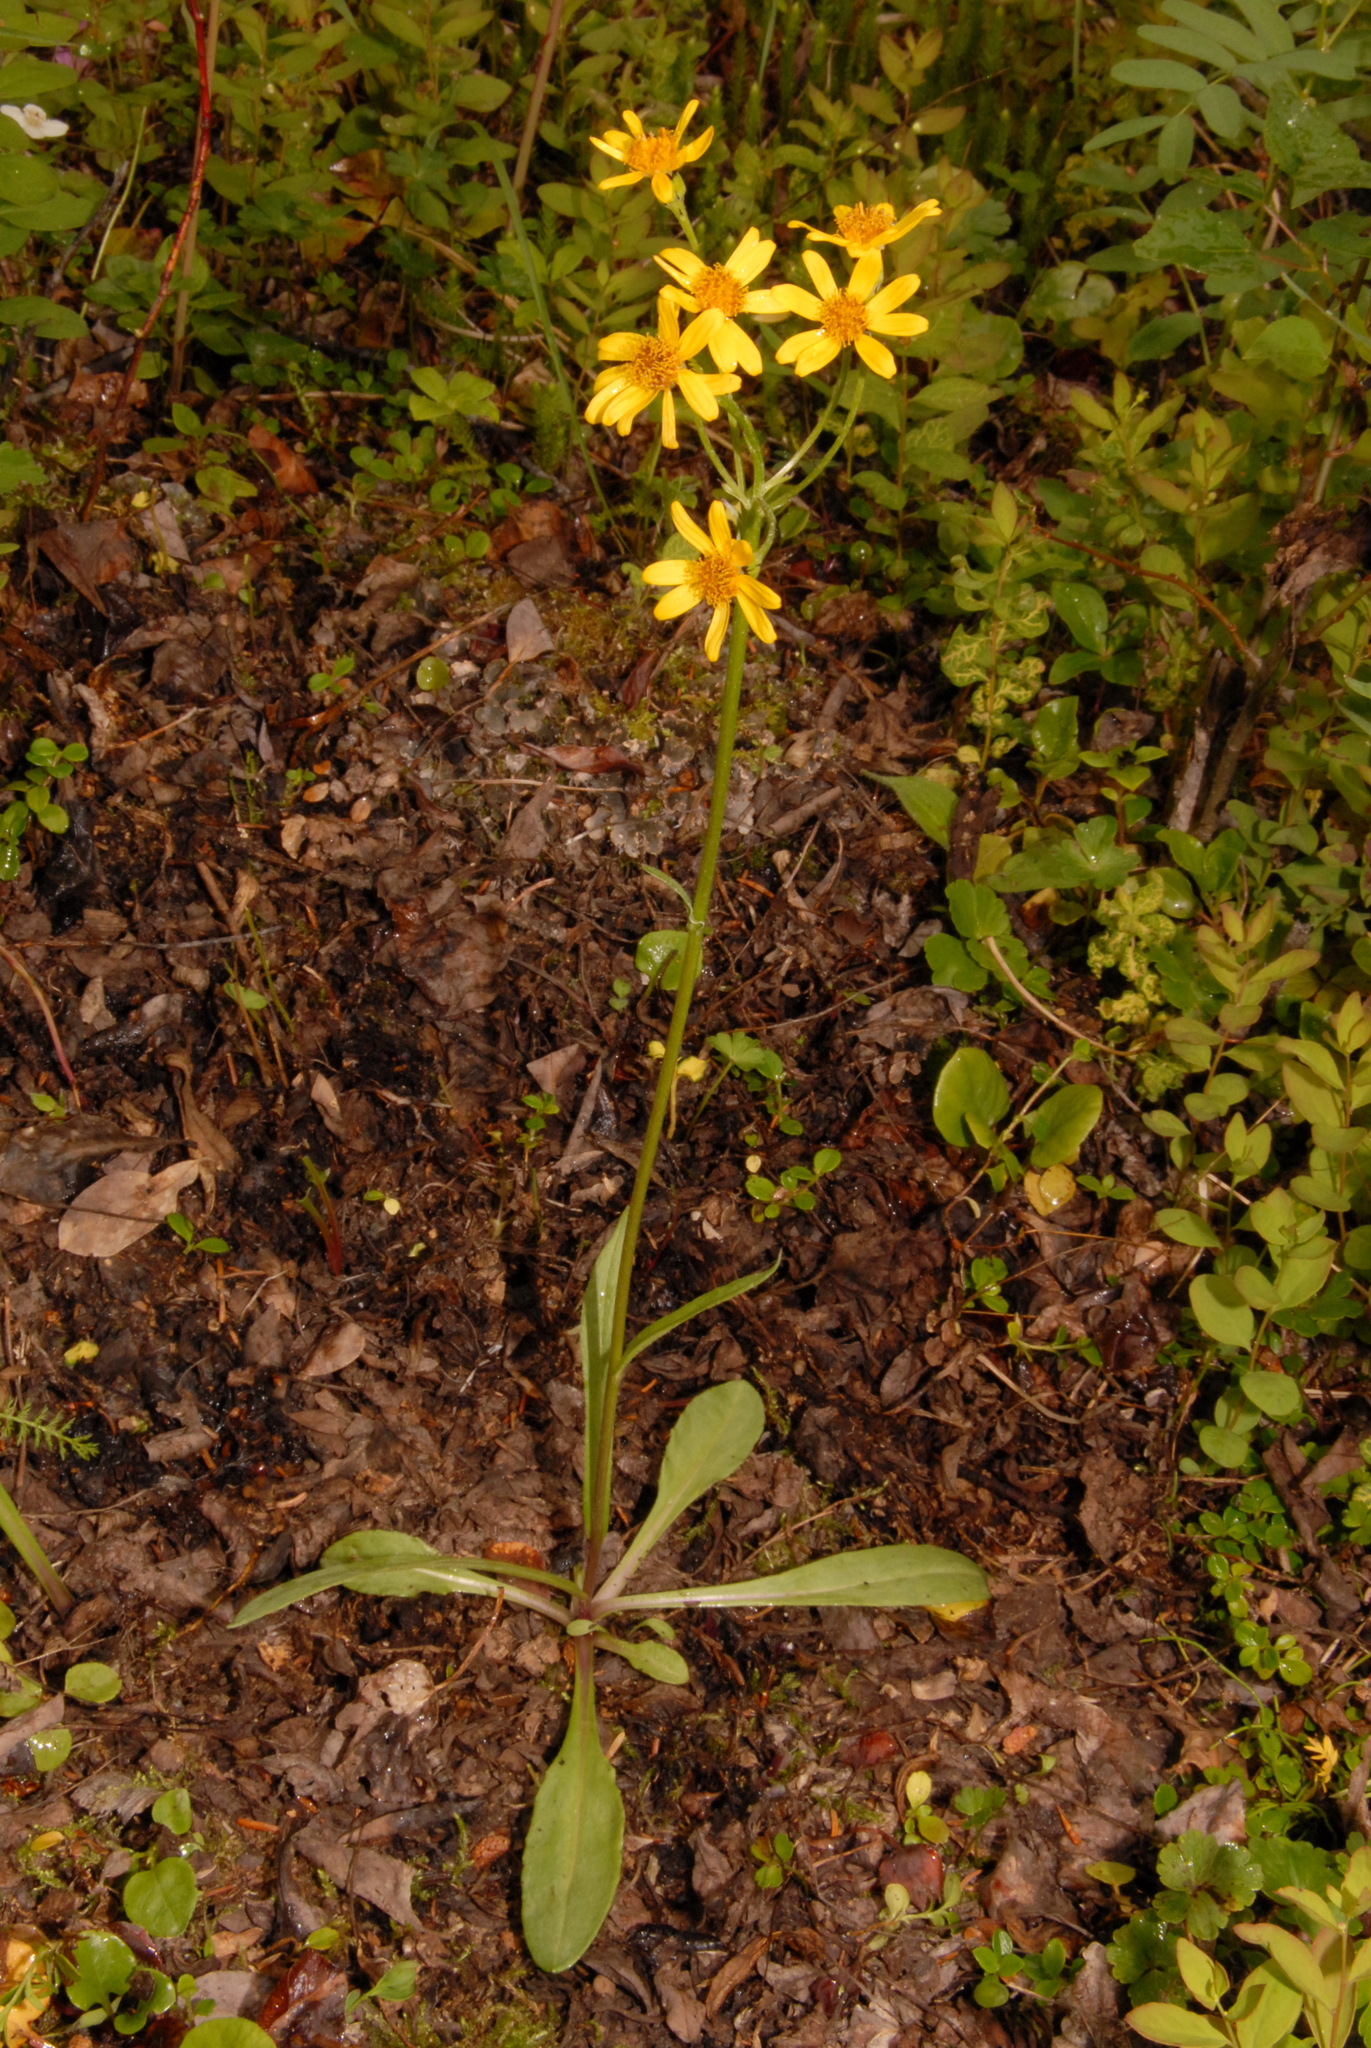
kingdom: Plantae
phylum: Tracheophyta
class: Magnoliopsida
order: Asterales
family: Asteraceae
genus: Senecio
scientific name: Senecio lugens
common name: Black-tip groundsel
